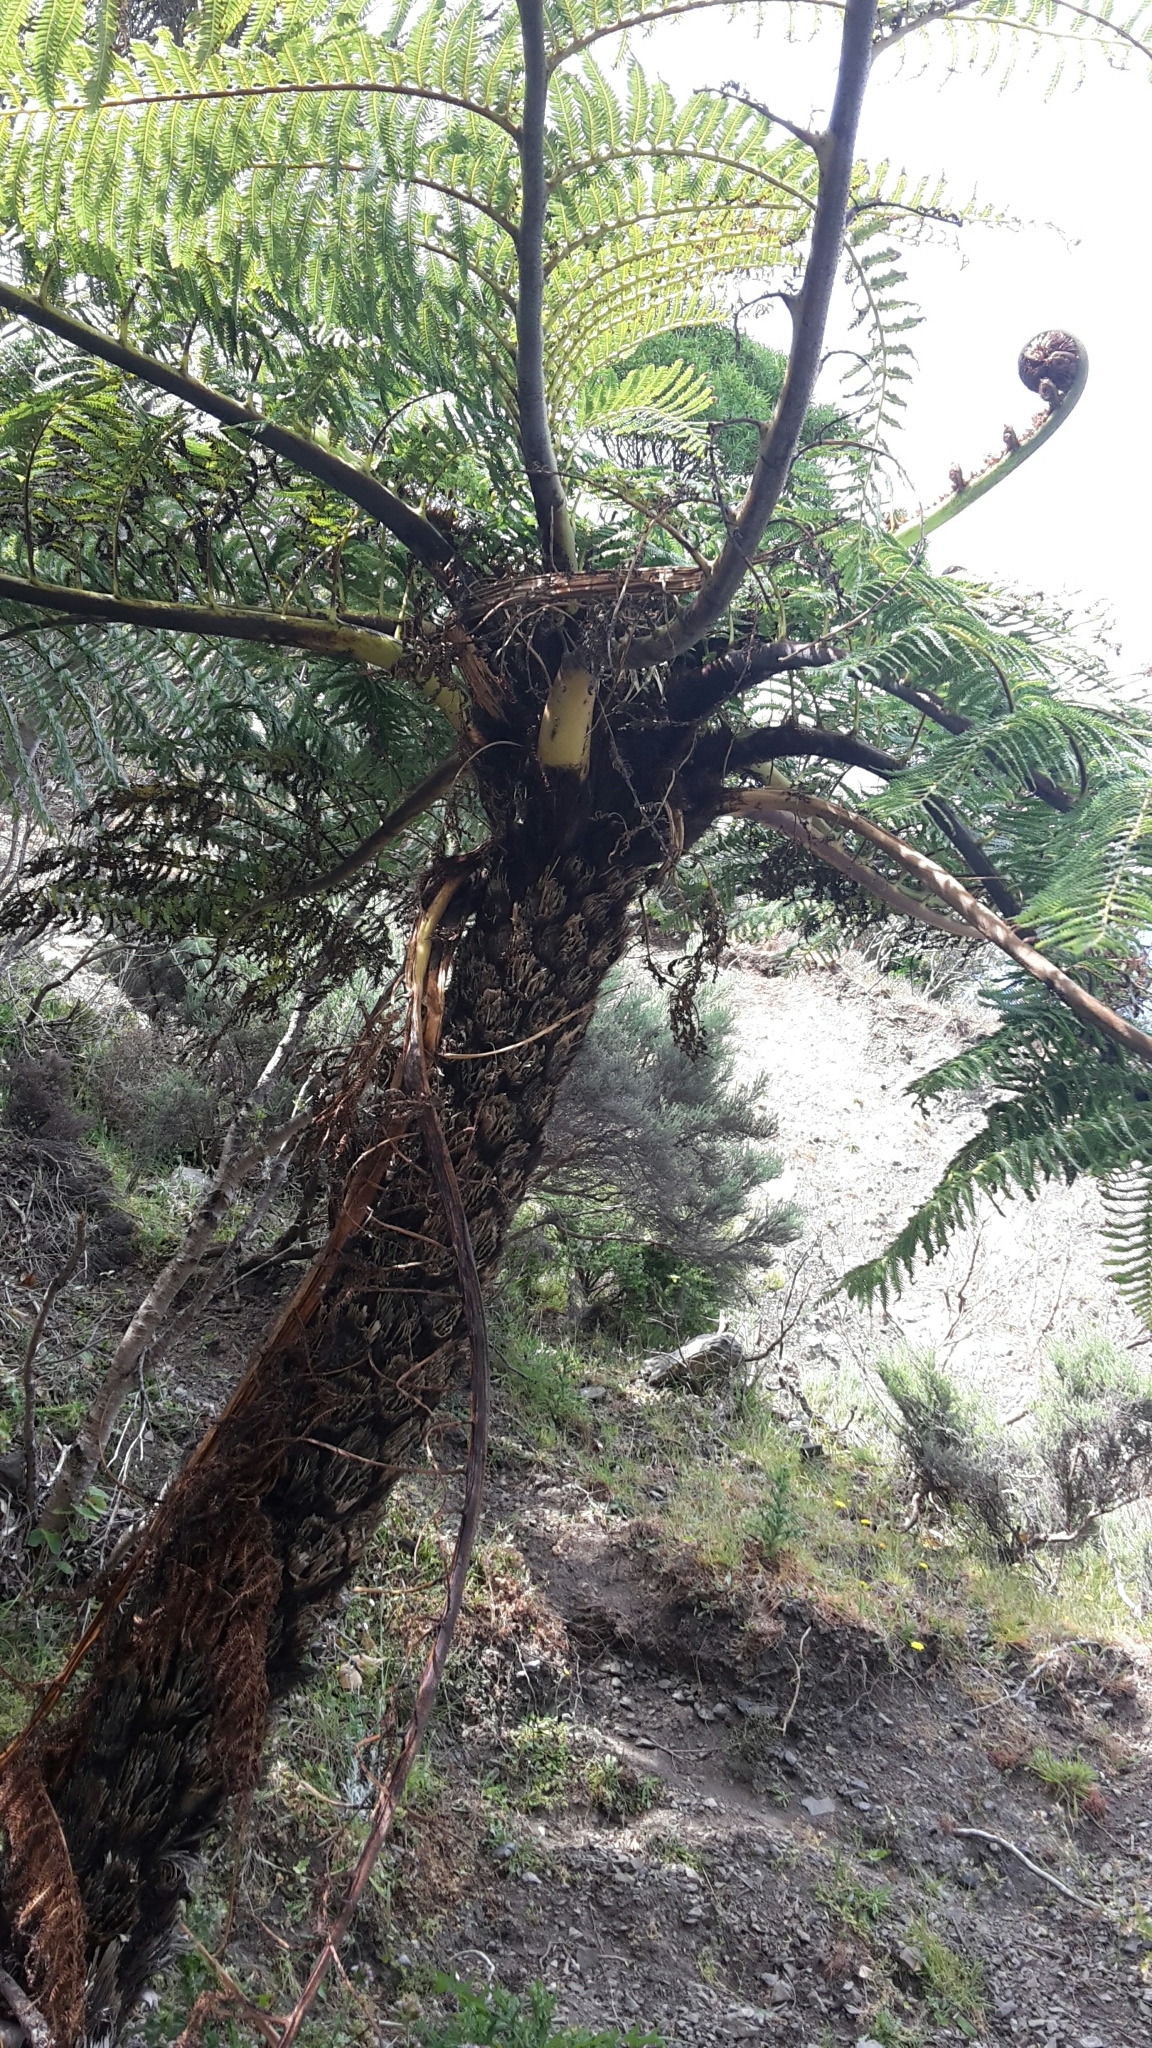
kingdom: Plantae
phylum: Tracheophyta
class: Polypodiopsida
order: Cyatheales
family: Cyatheaceae
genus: Sphaeropteris
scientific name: Sphaeropteris medullaris
